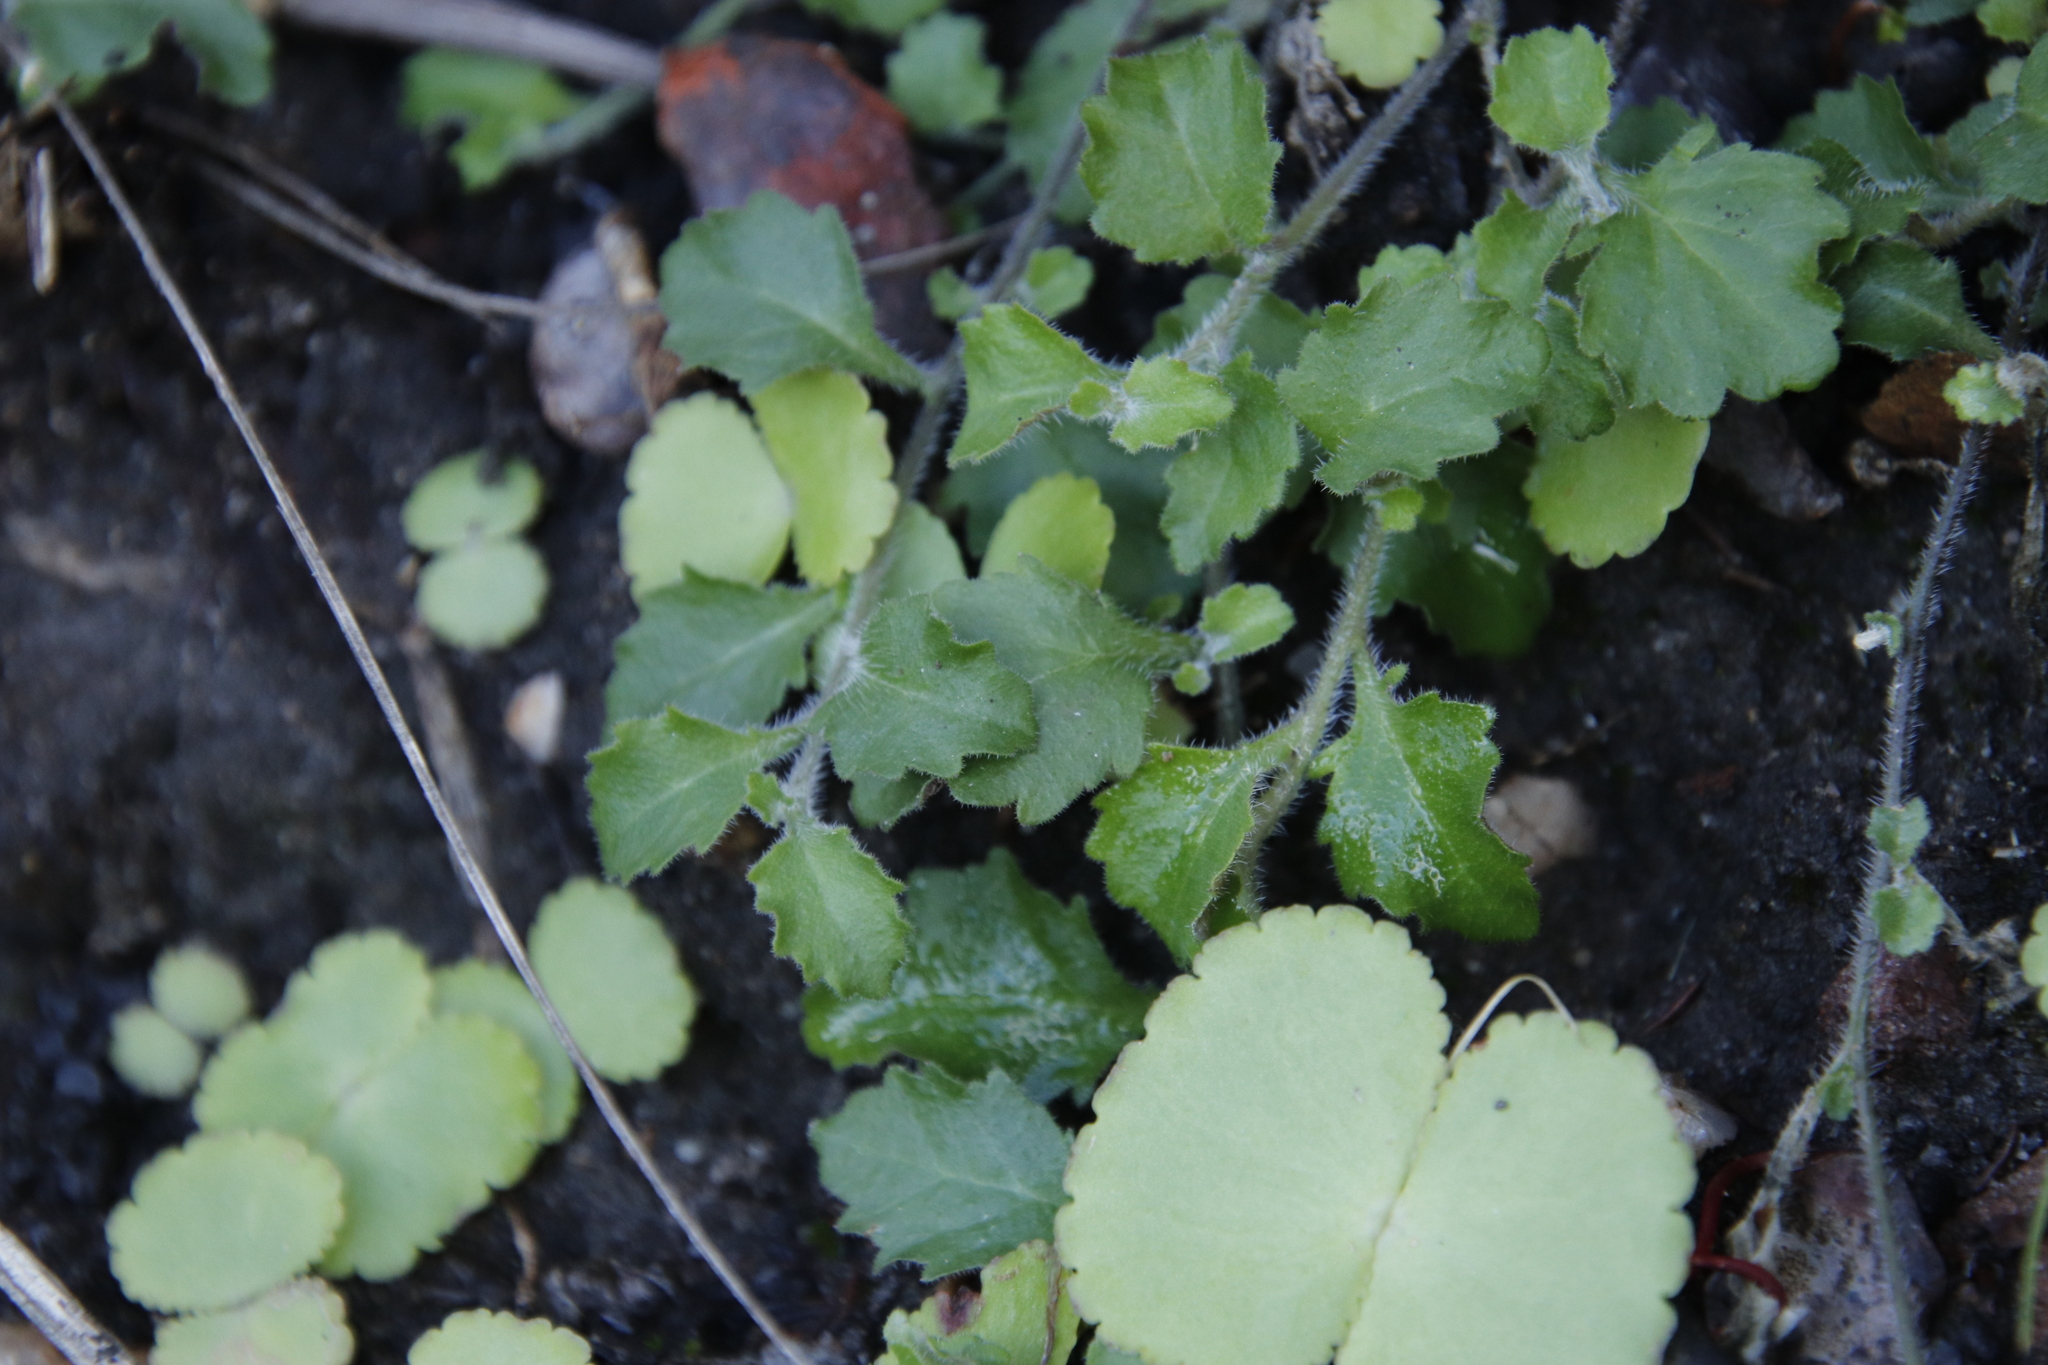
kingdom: Plantae
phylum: Tracheophyta
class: Magnoliopsida
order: Asterales
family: Campanulaceae
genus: Lobelia
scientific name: Lobelia pubescens
